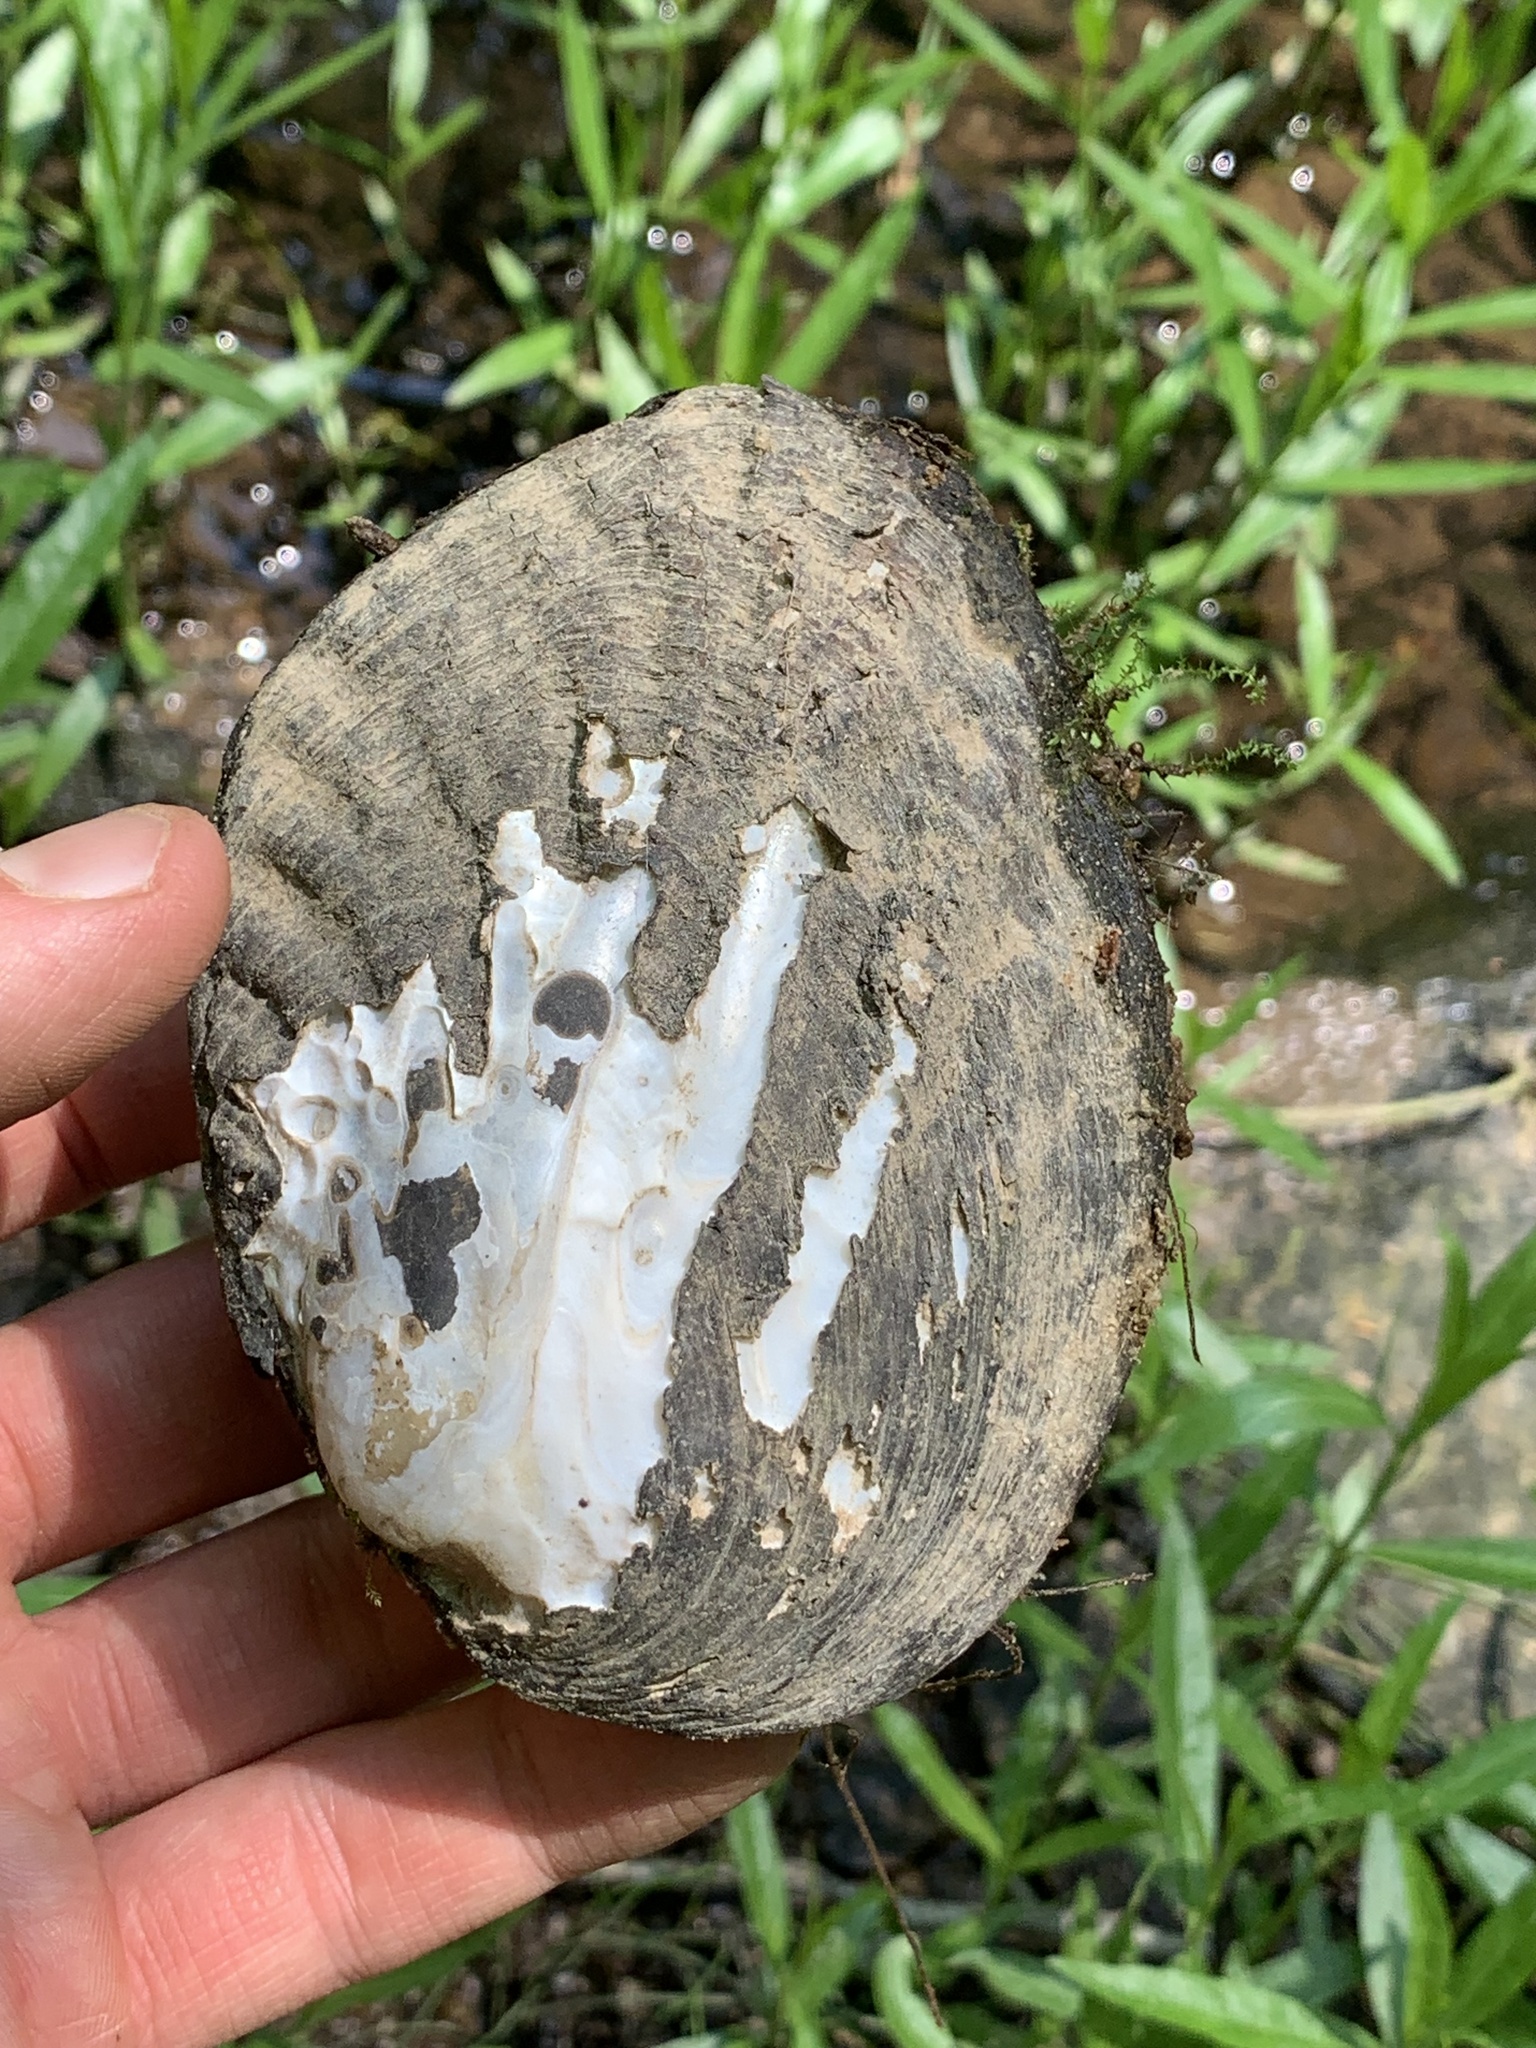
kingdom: Animalia
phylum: Mollusca
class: Bivalvia
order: Unionida
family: Unionidae
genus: Amblema
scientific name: Amblema plicata
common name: Threeridge
